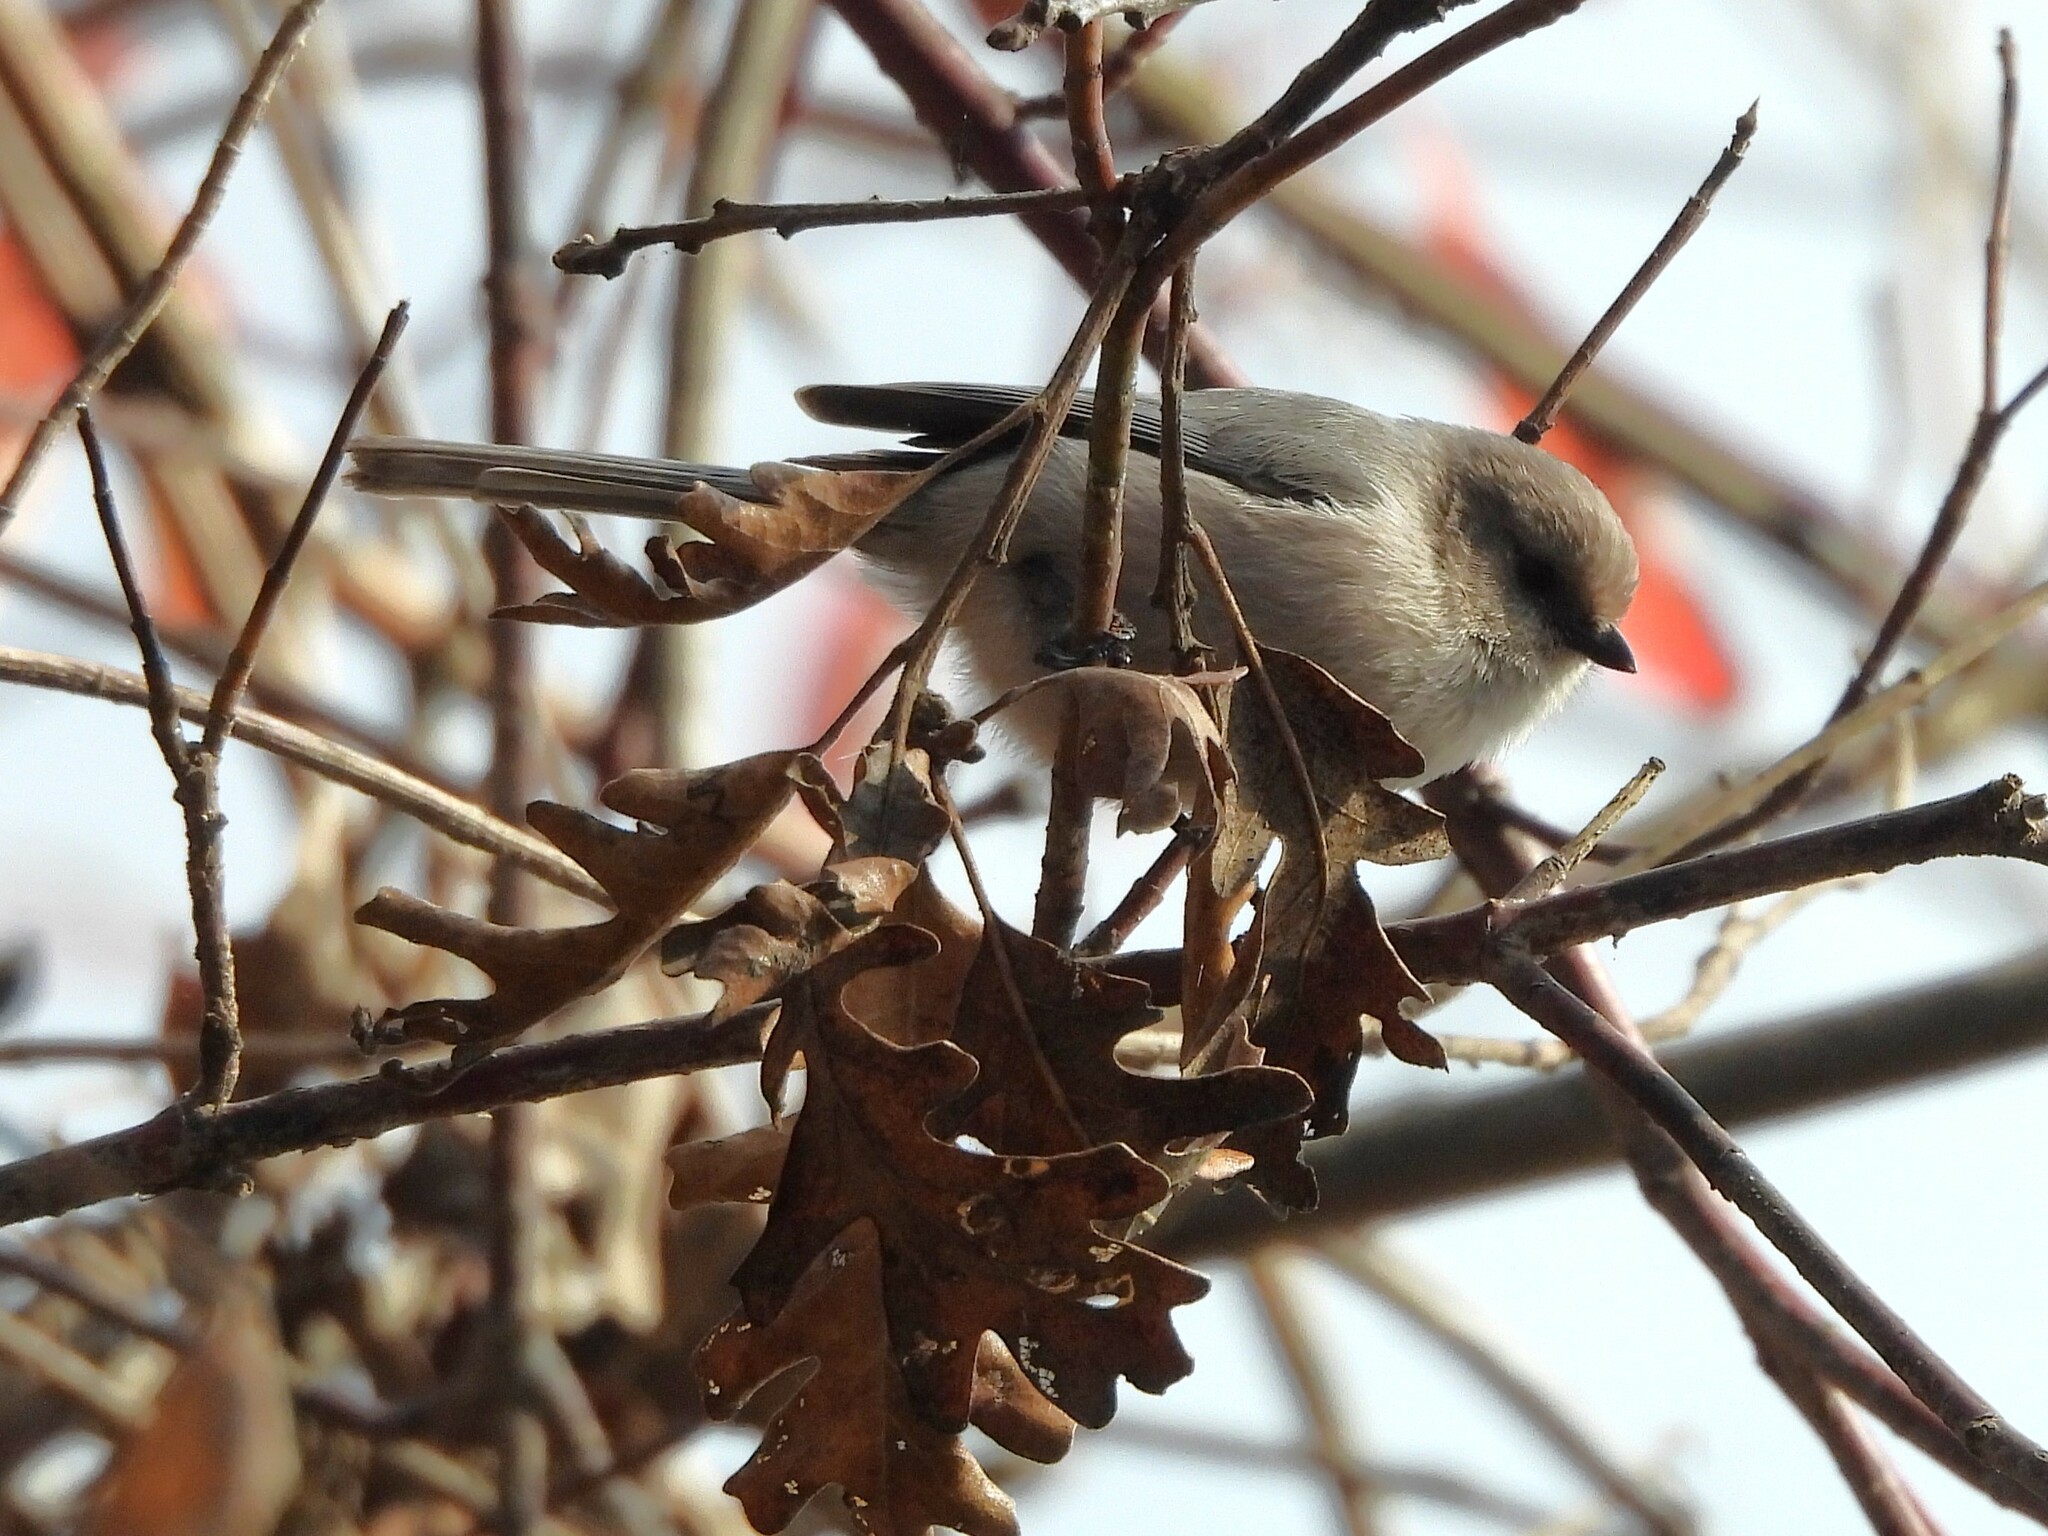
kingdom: Animalia
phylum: Chordata
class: Aves
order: Passeriformes
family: Aegithalidae
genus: Psaltriparus
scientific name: Psaltriparus minimus
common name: American bushtit
